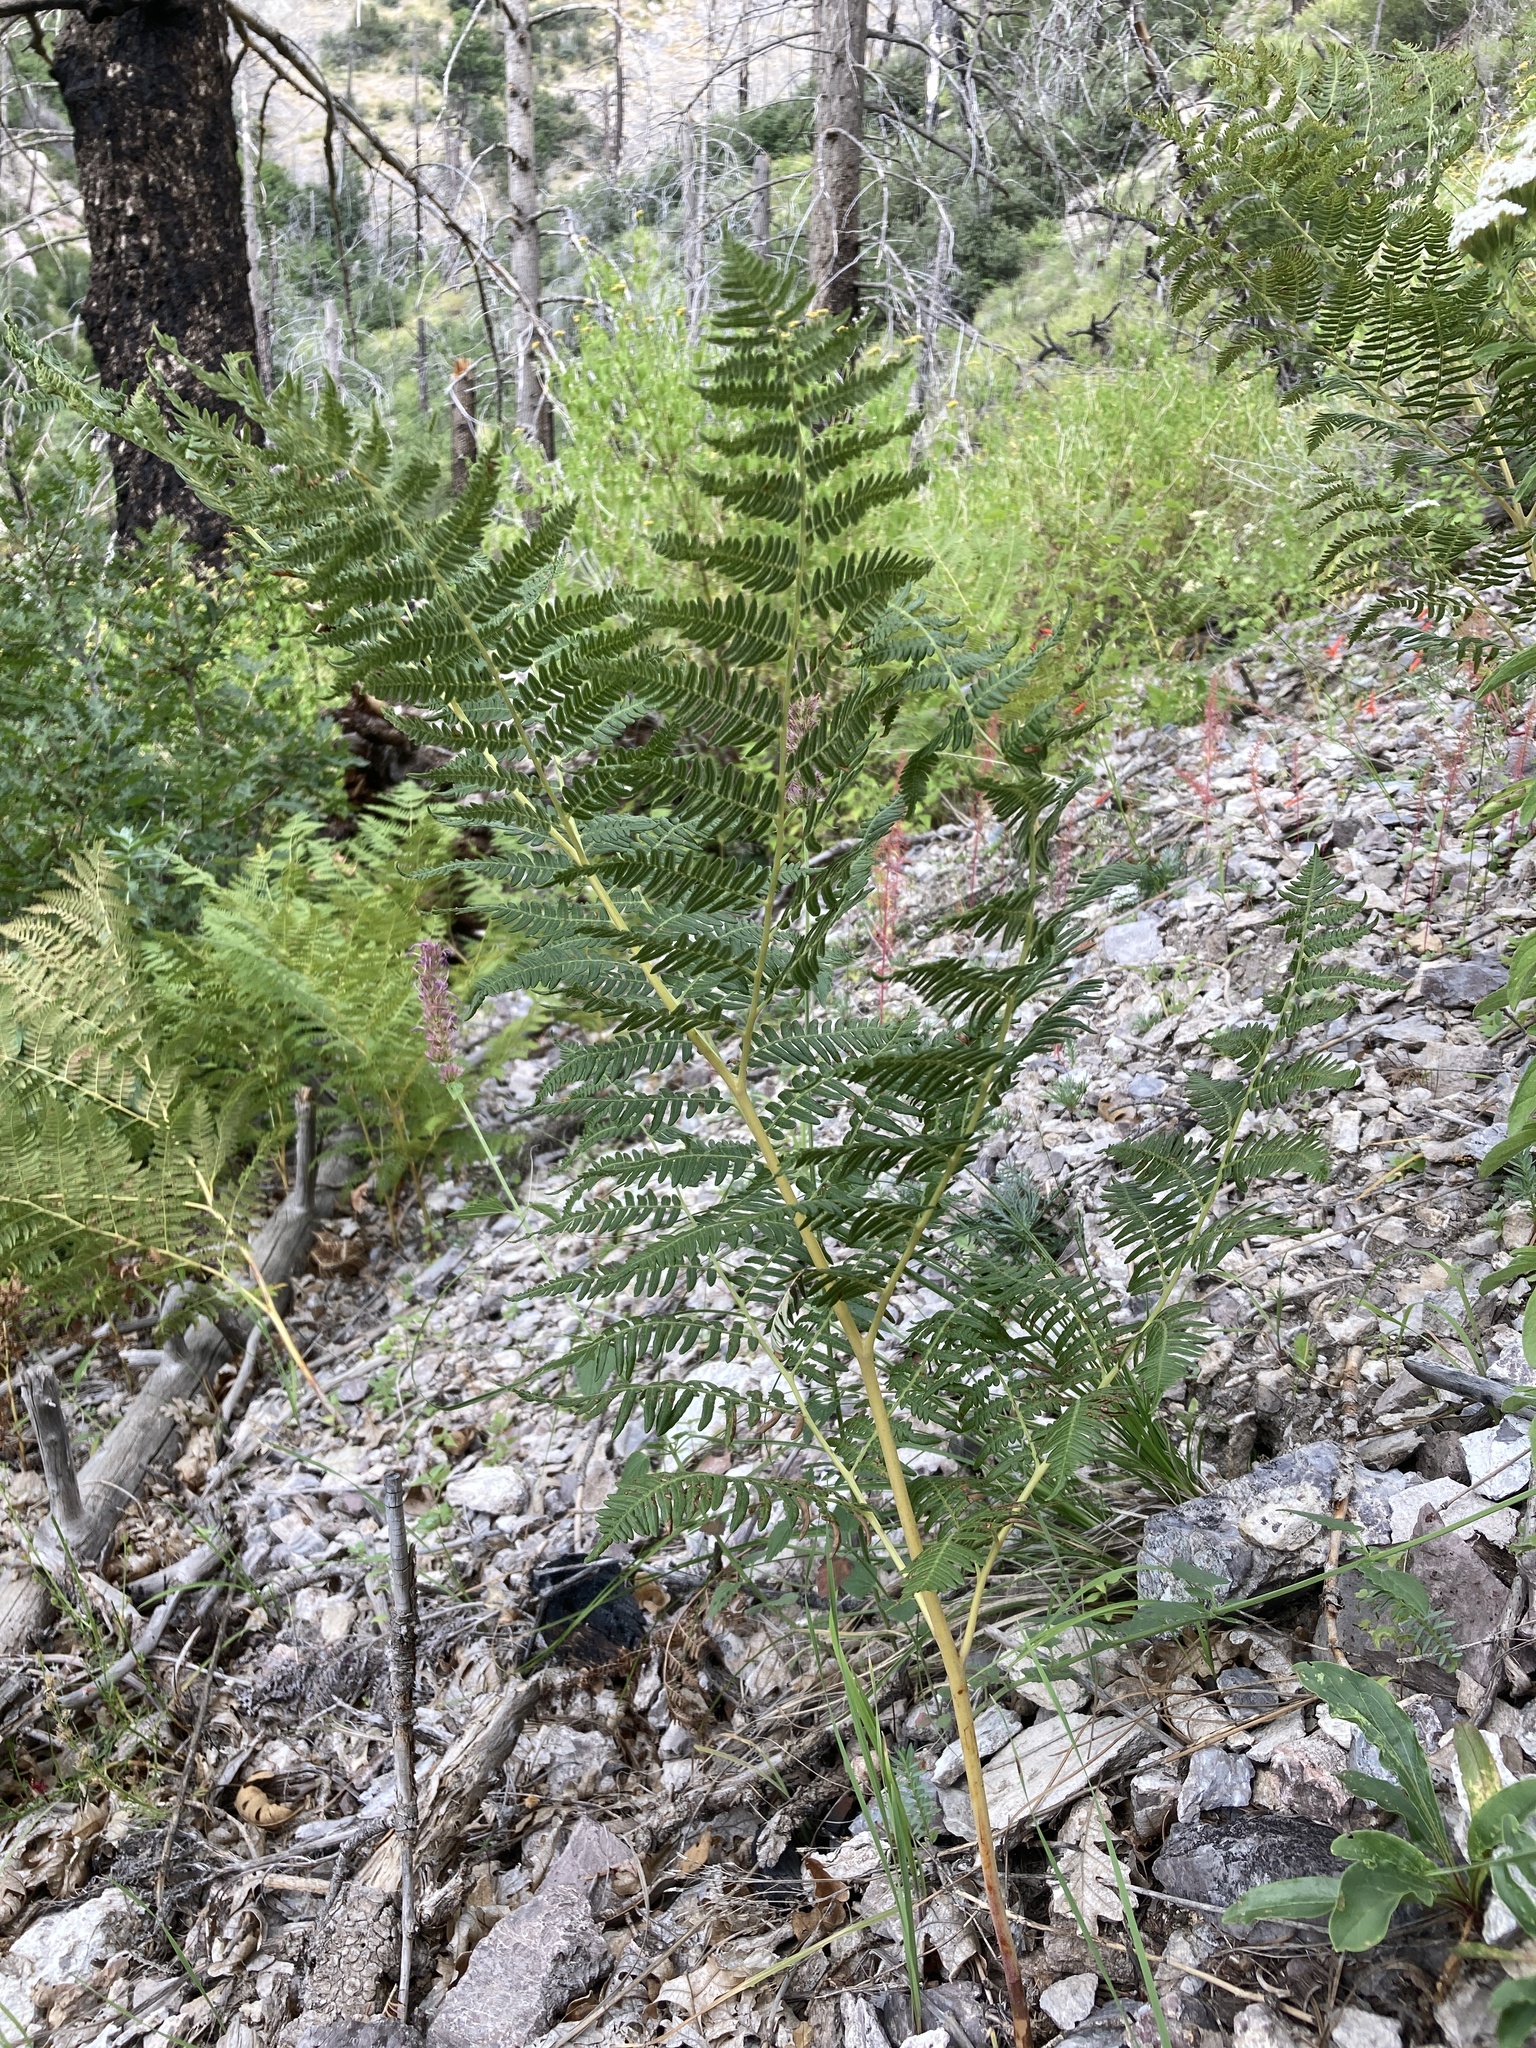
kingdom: Plantae
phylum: Tracheophyta
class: Polypodiopsida
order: Polypodiales
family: Dennstaedtiaceae
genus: Pteridium
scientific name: Pteridium aquilinum
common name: Bracken
